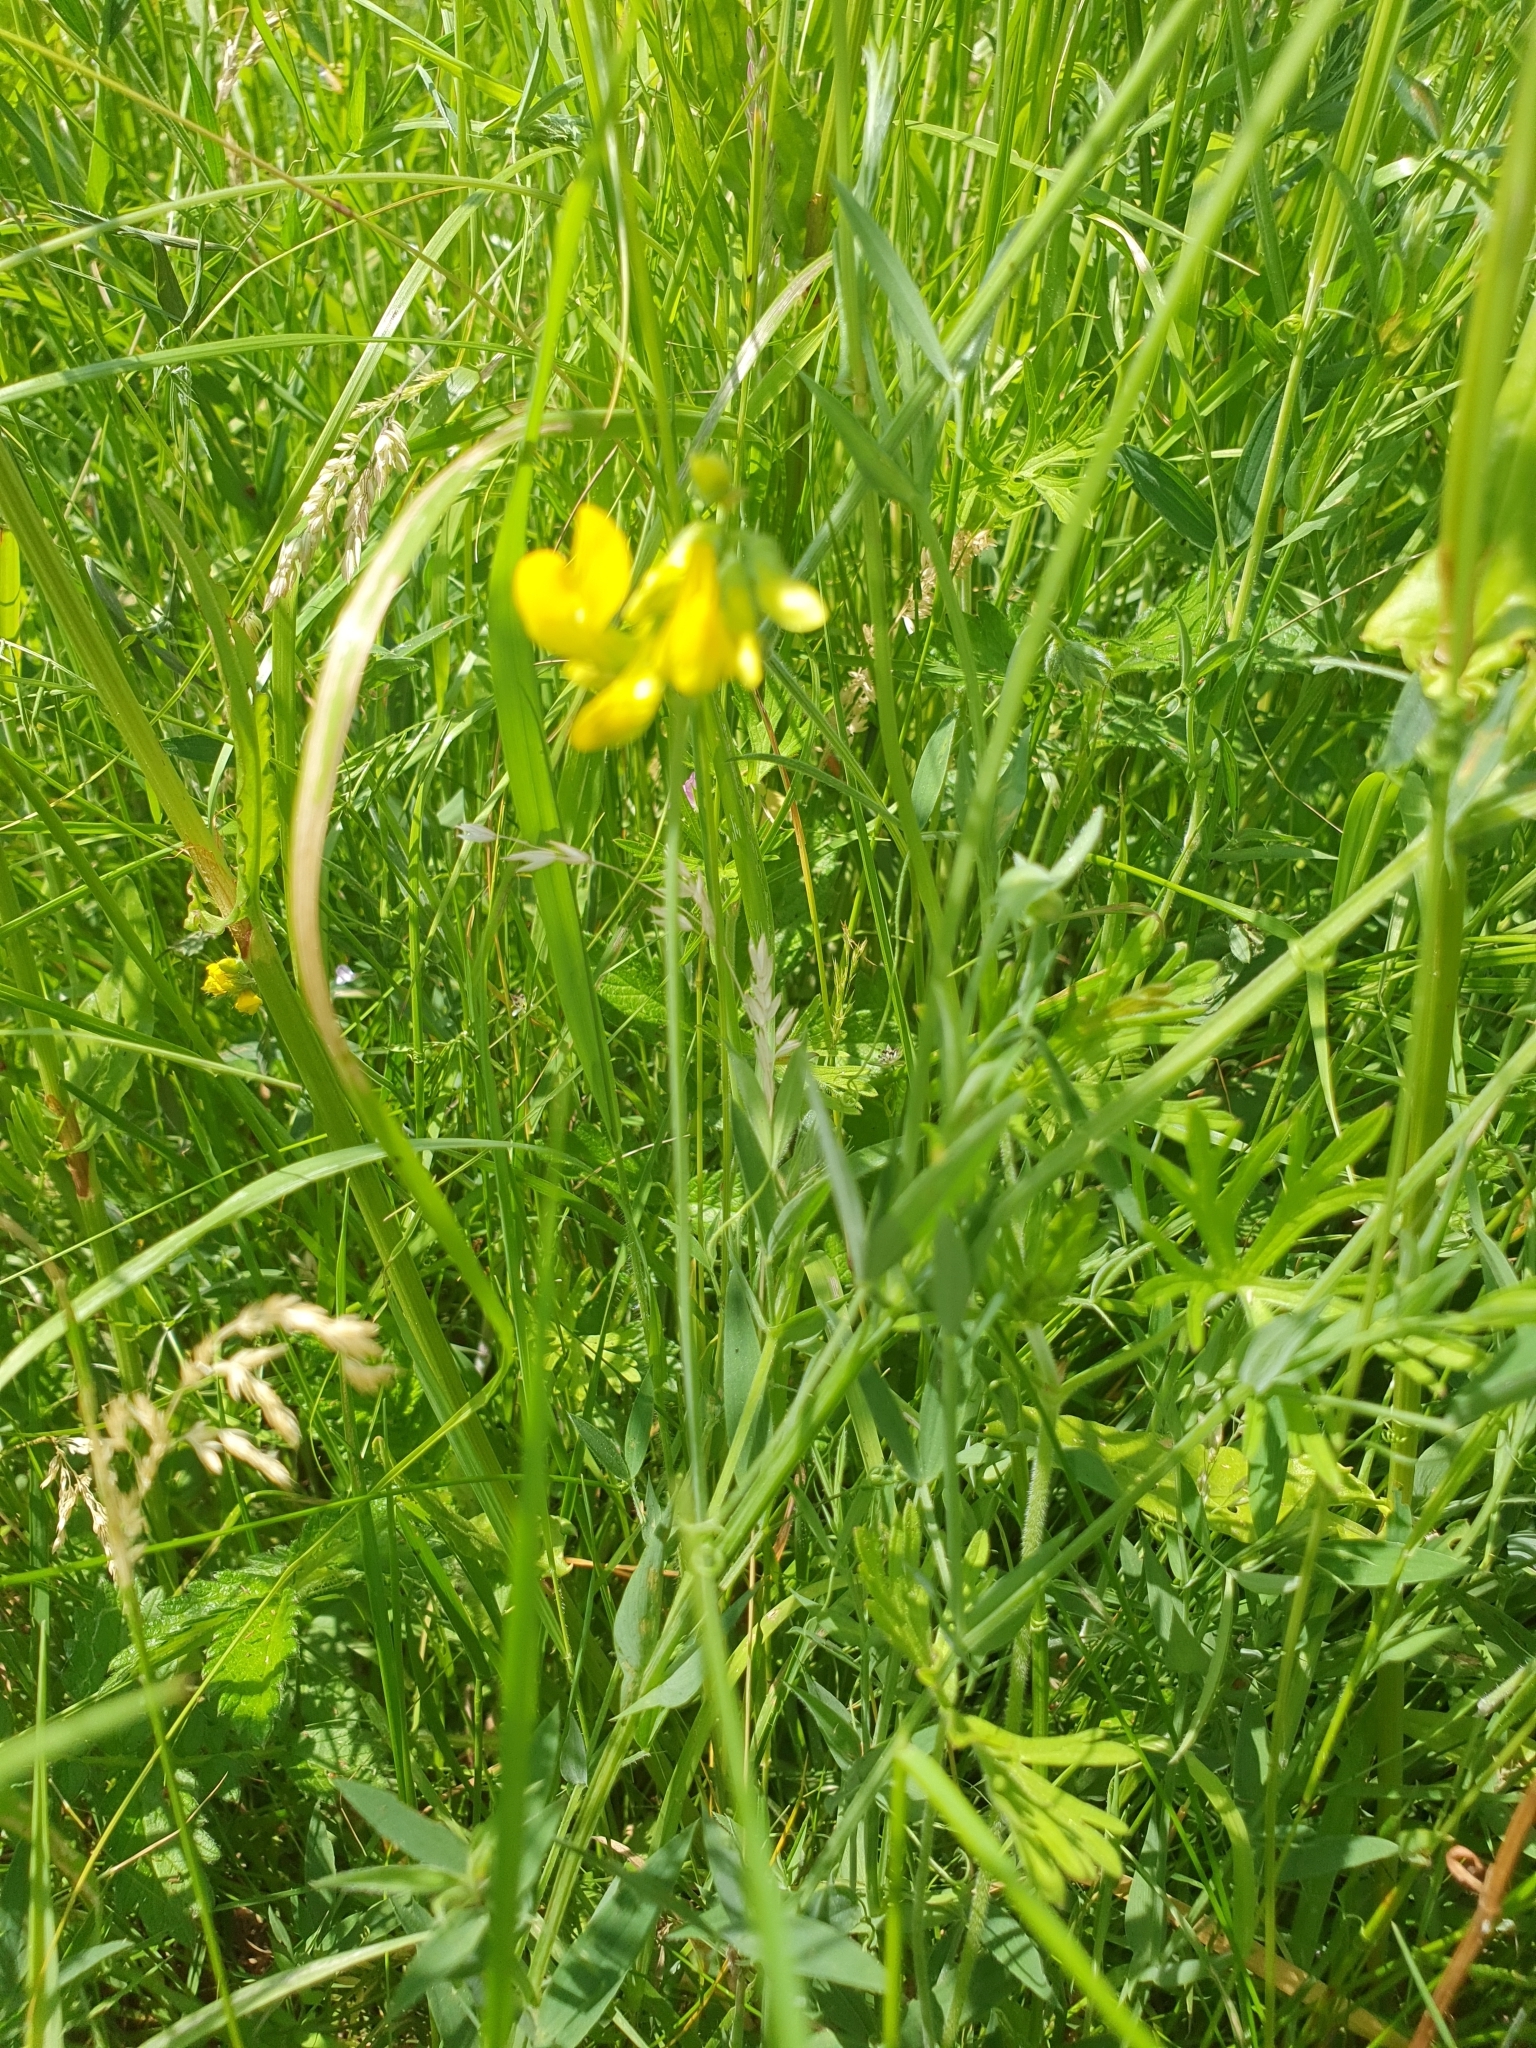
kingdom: Plantae
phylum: Tracheophyta
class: Magnoliopsida
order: Fabales
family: Fabaceae
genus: Lathyrus
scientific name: Lathyrus pratensis
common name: Meadow vetchling
